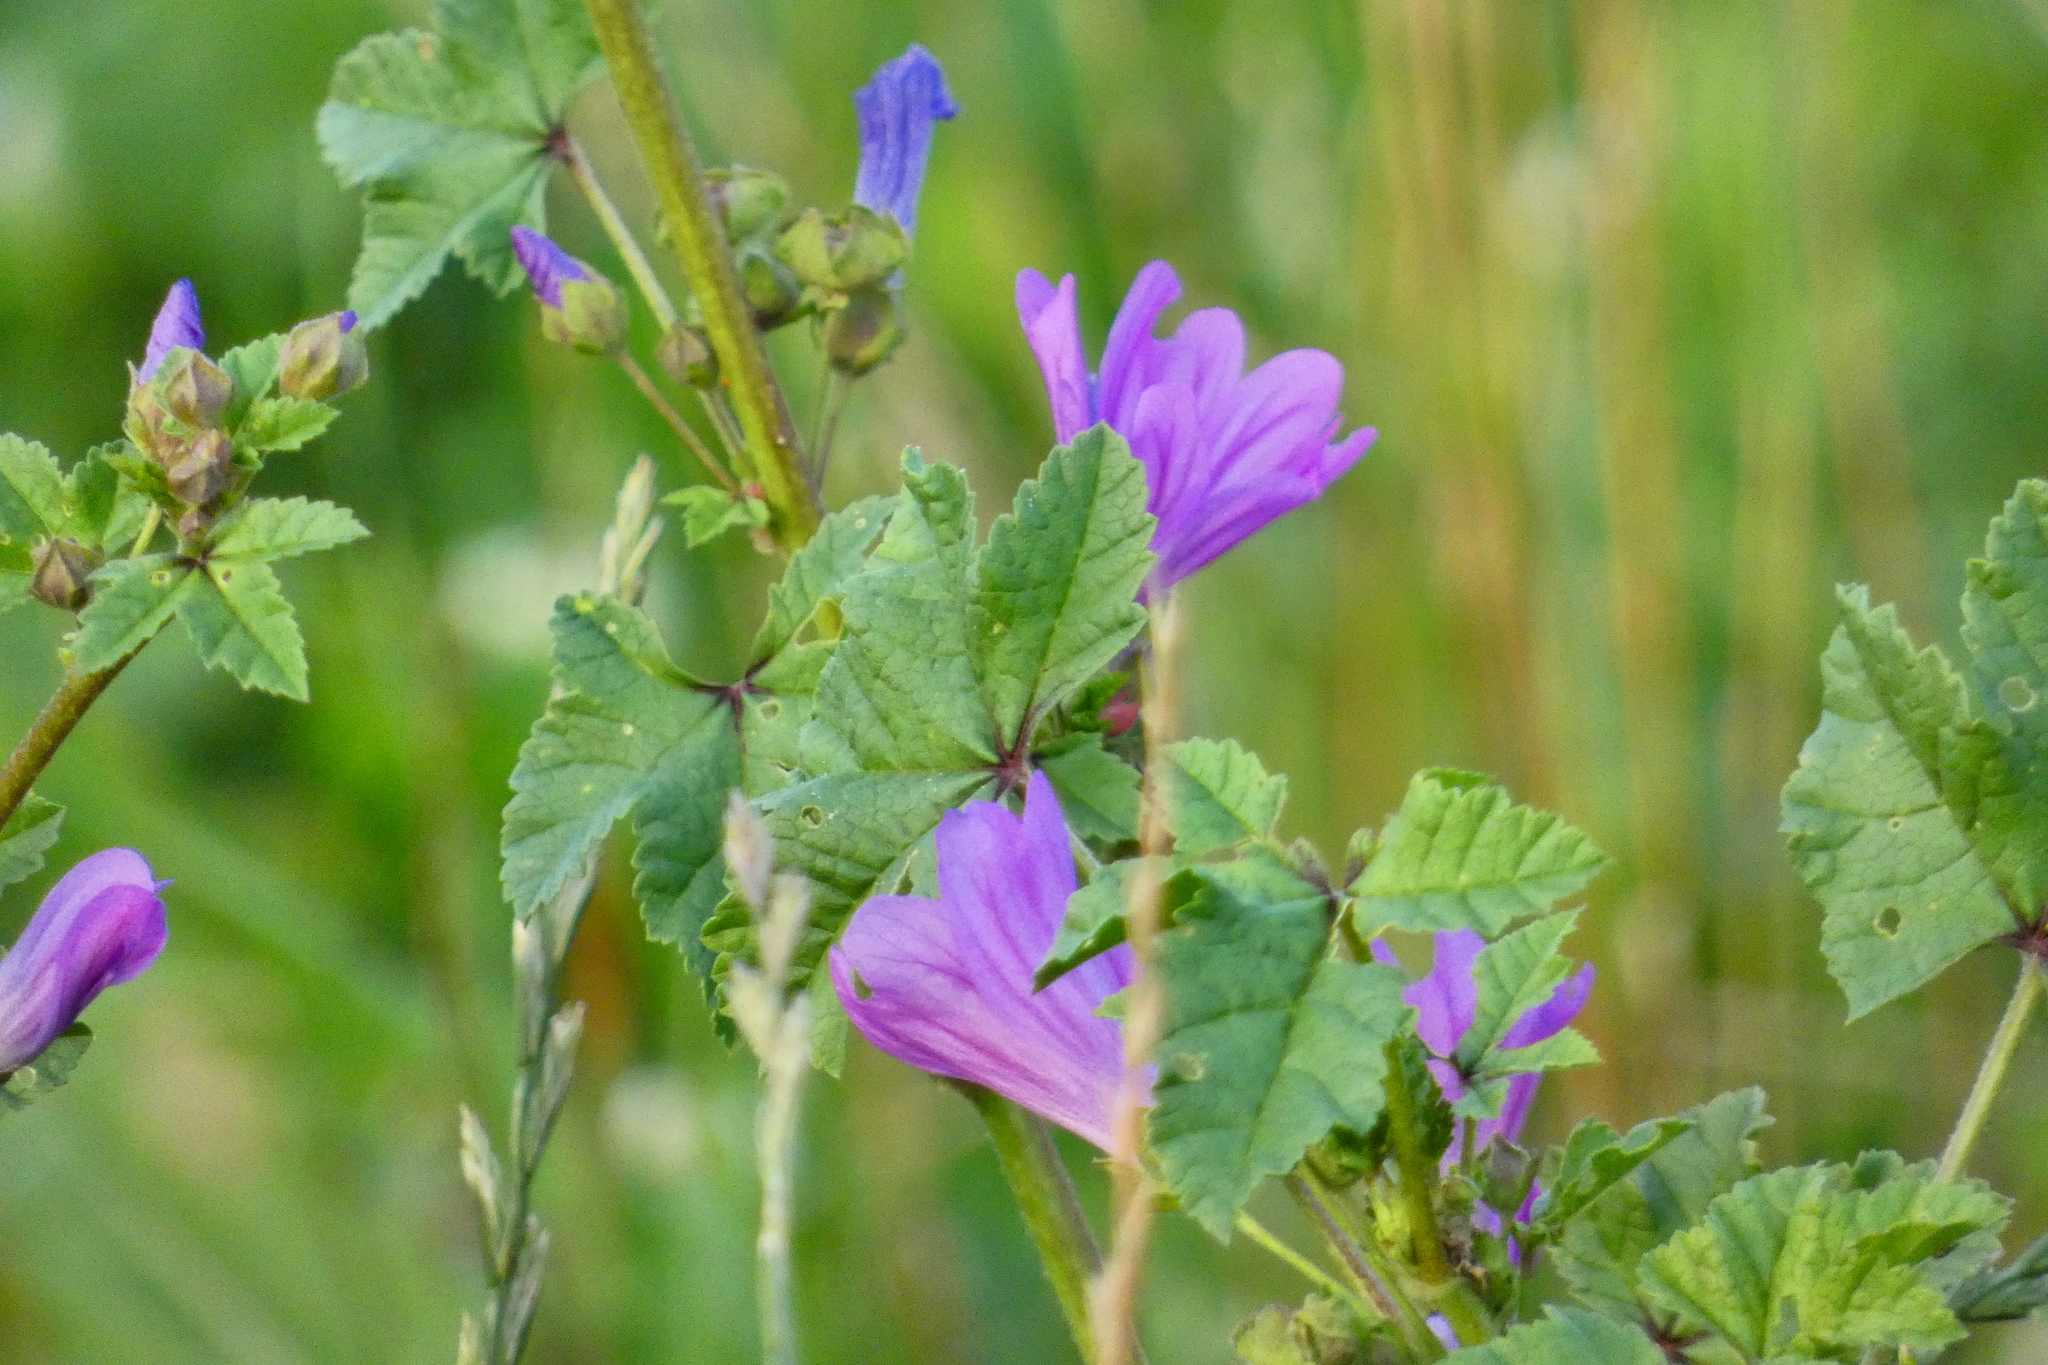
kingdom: Plantae
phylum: Tracheophyta
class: Magnoliopsida
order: Malvales
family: Malvaceae
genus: Malva
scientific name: Malva sylvestris
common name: Common mallow
